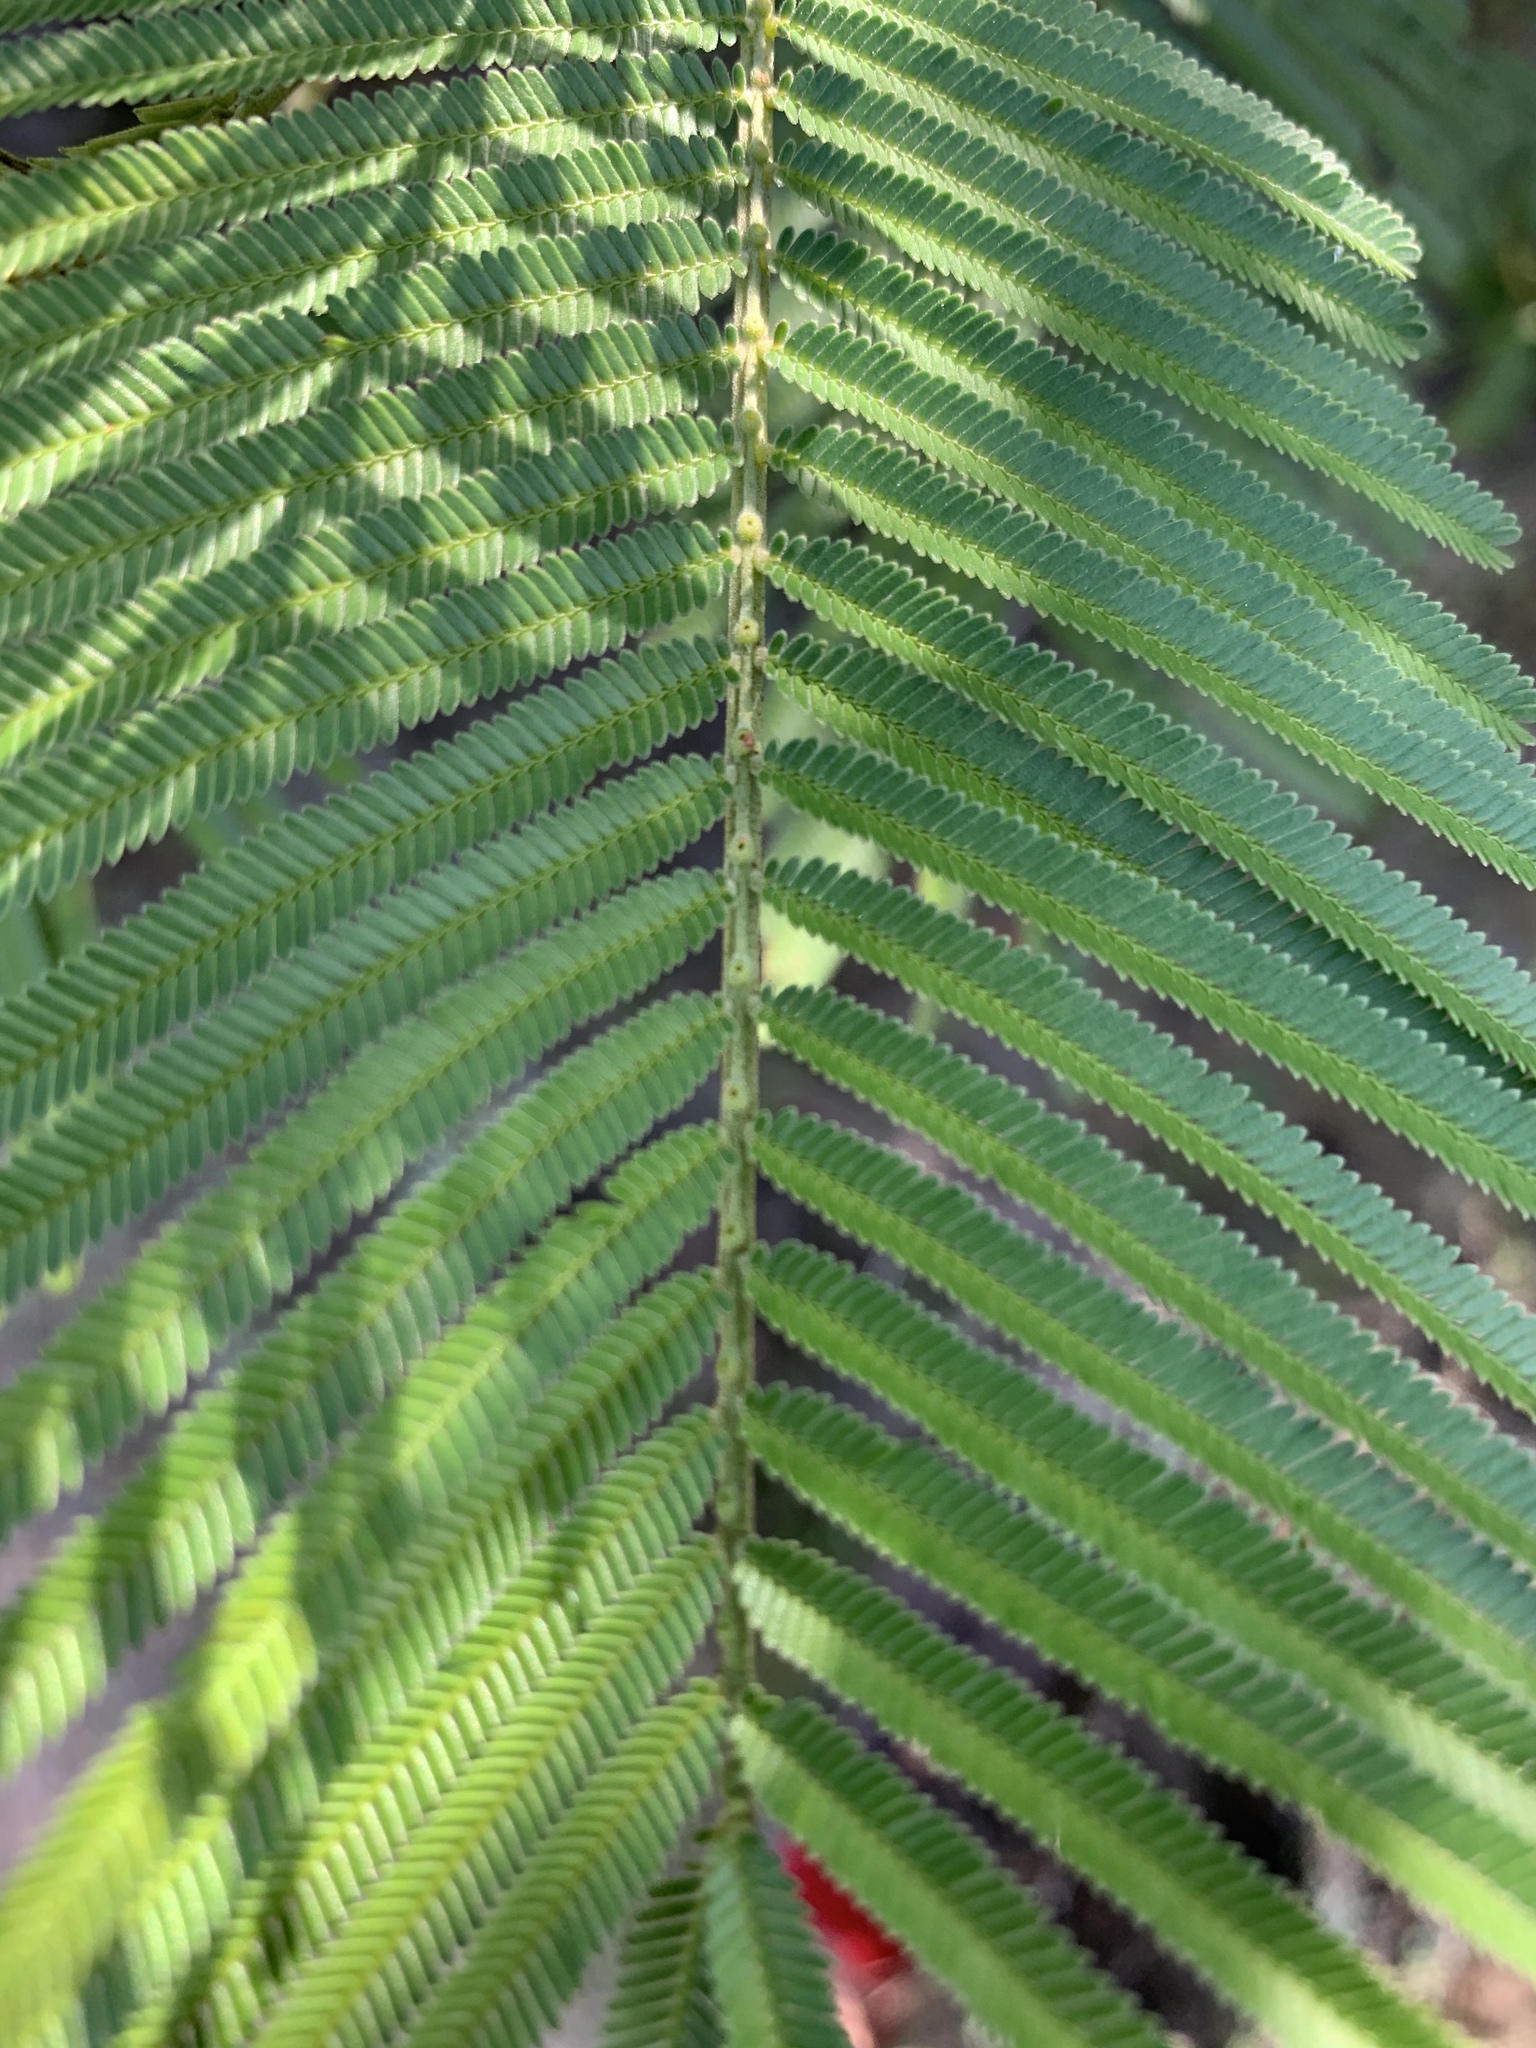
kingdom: Plantae
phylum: Tracheophyta
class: Magnoliopsida
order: Fabales
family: Fabaceae
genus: Acacia
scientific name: Acacia mearnsii
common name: Black wattle
